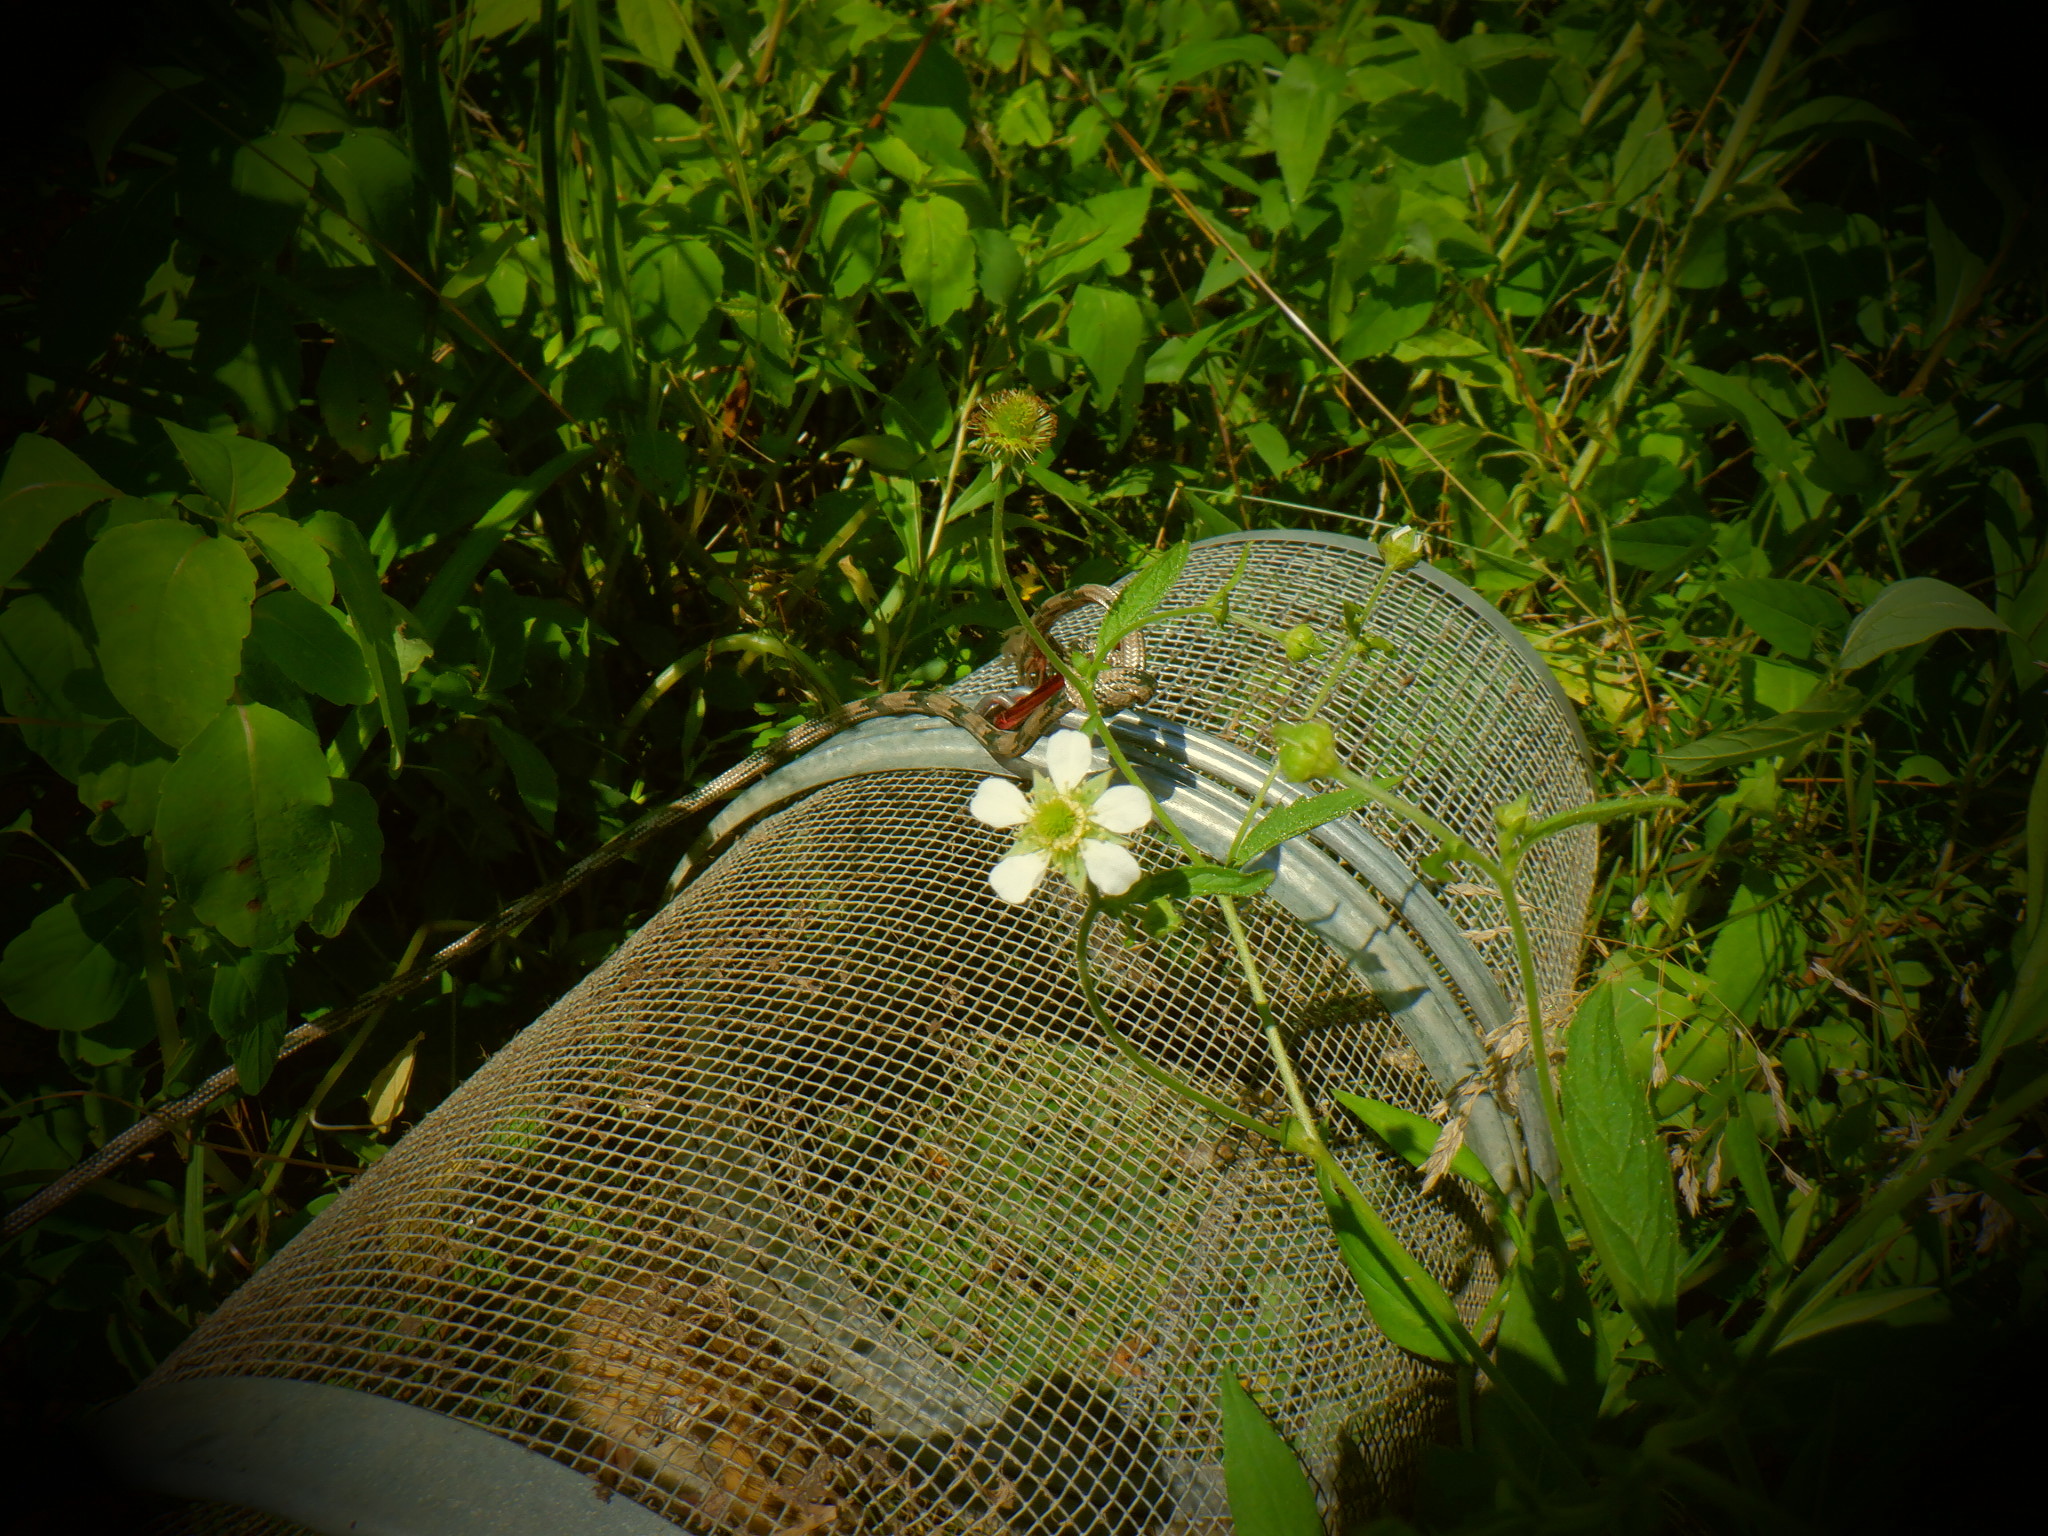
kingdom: Plantae
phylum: Tracheophyta
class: Magnoliopsida
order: Rosales
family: Rosaceae
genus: Geum
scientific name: Geum canadense
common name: White avens
